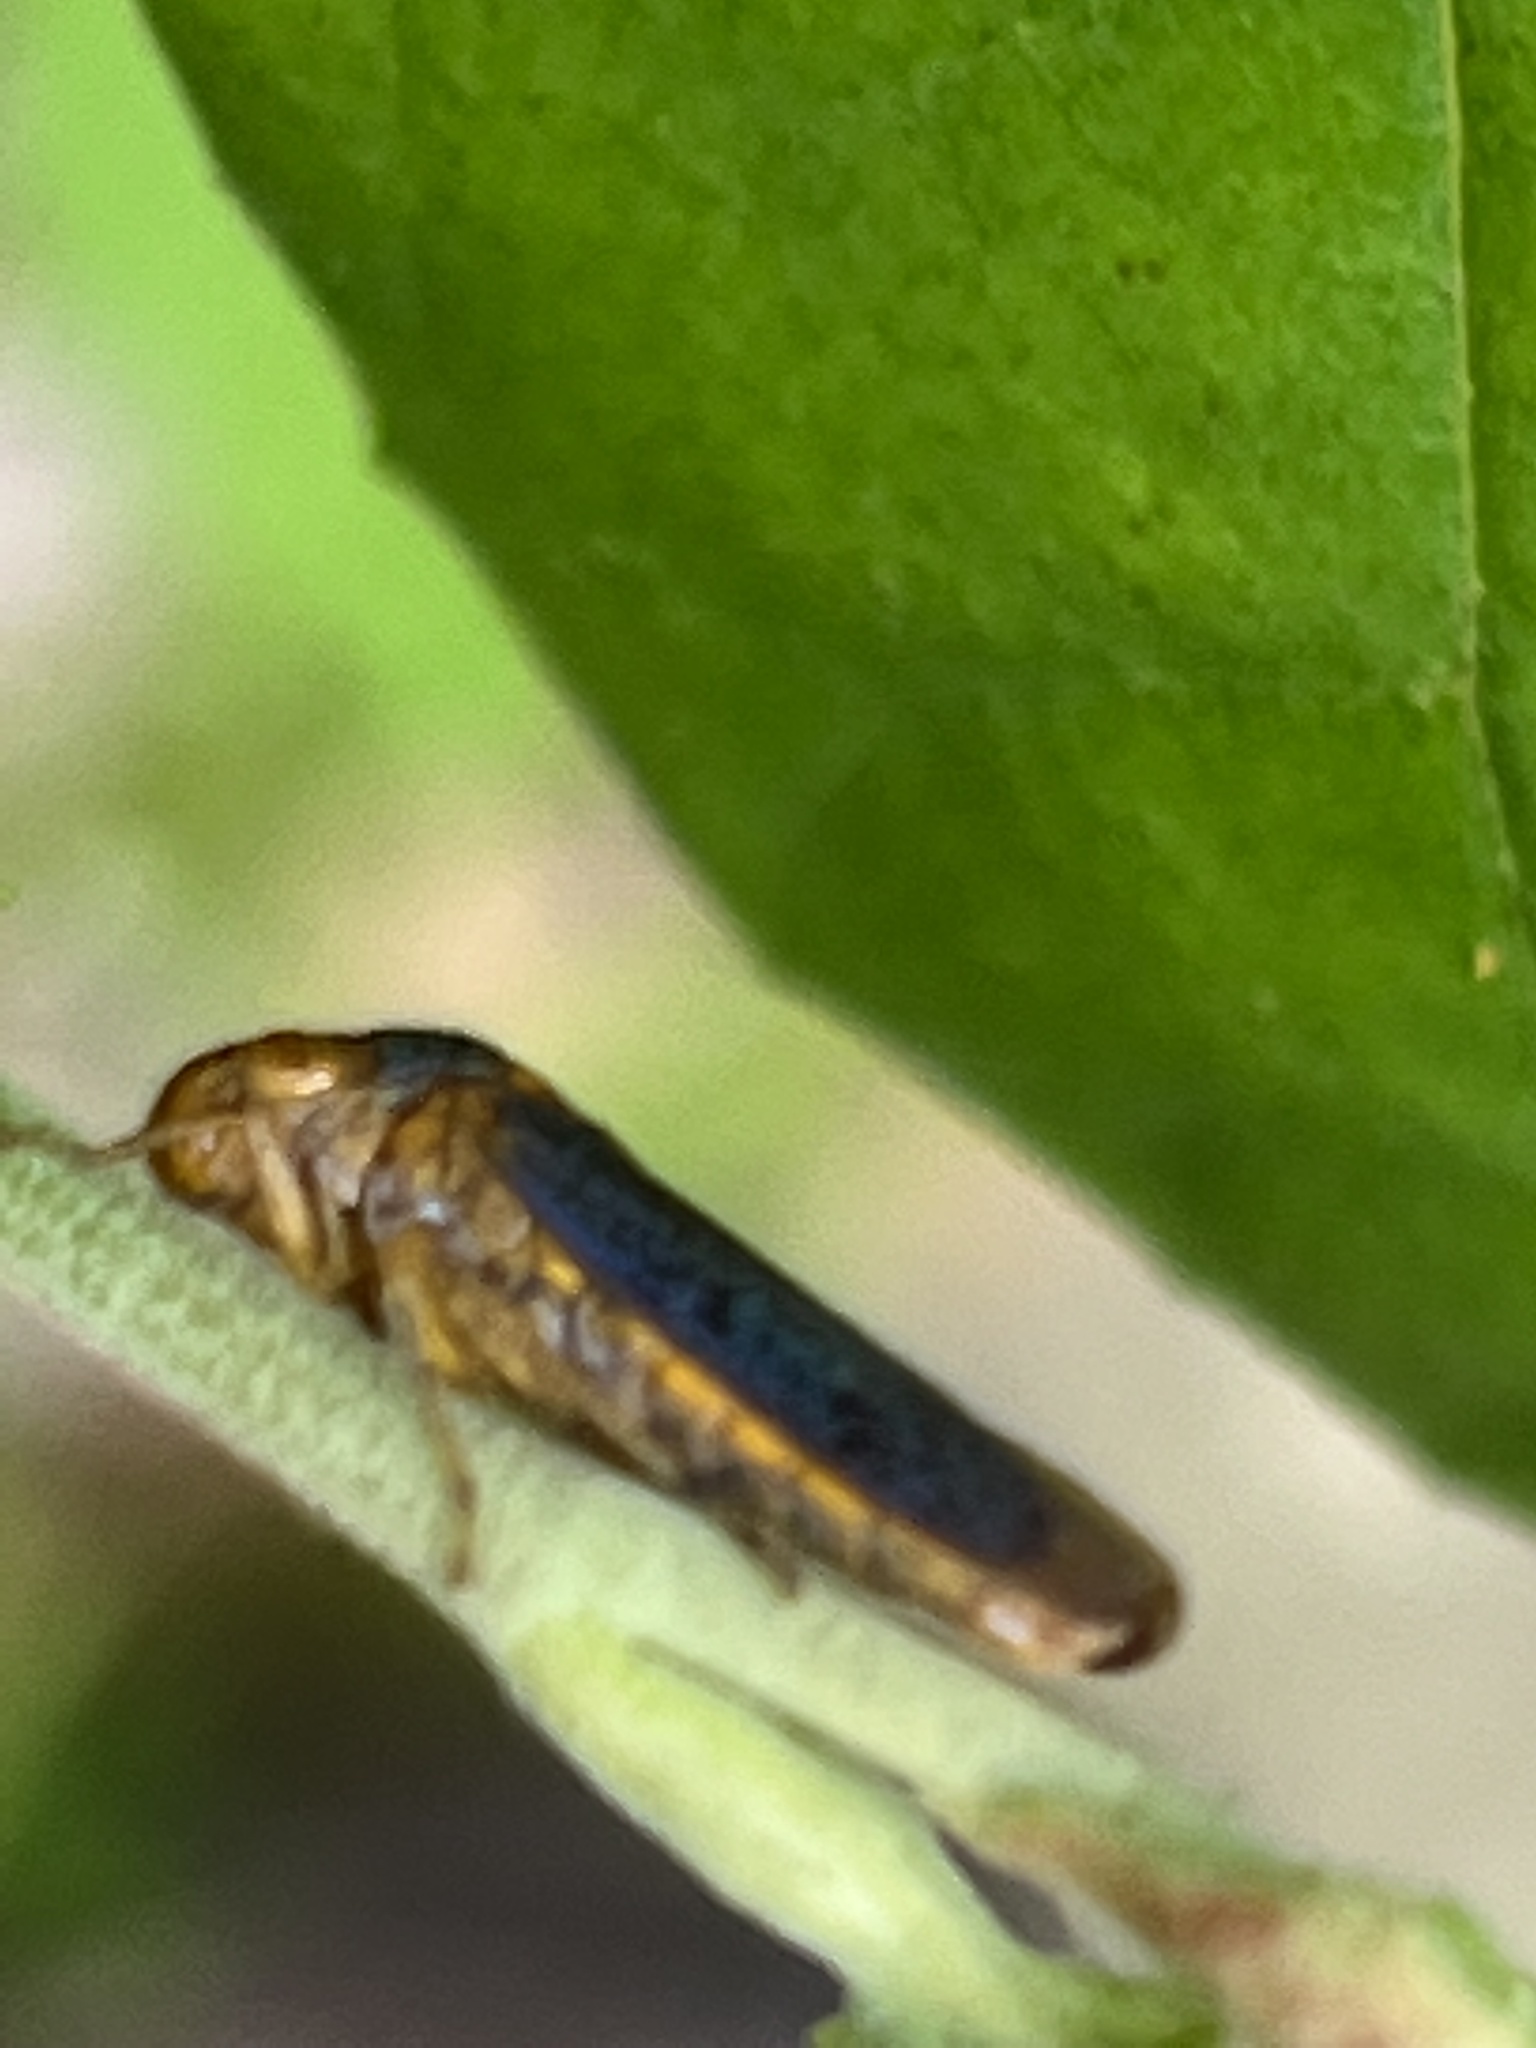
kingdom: Animalia
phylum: Arthropoda
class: Insecta
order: Hemiptera
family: Cicadellidae
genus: Oncometopia
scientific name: Oncometopia orbona
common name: Broad-headed sharpshooter
